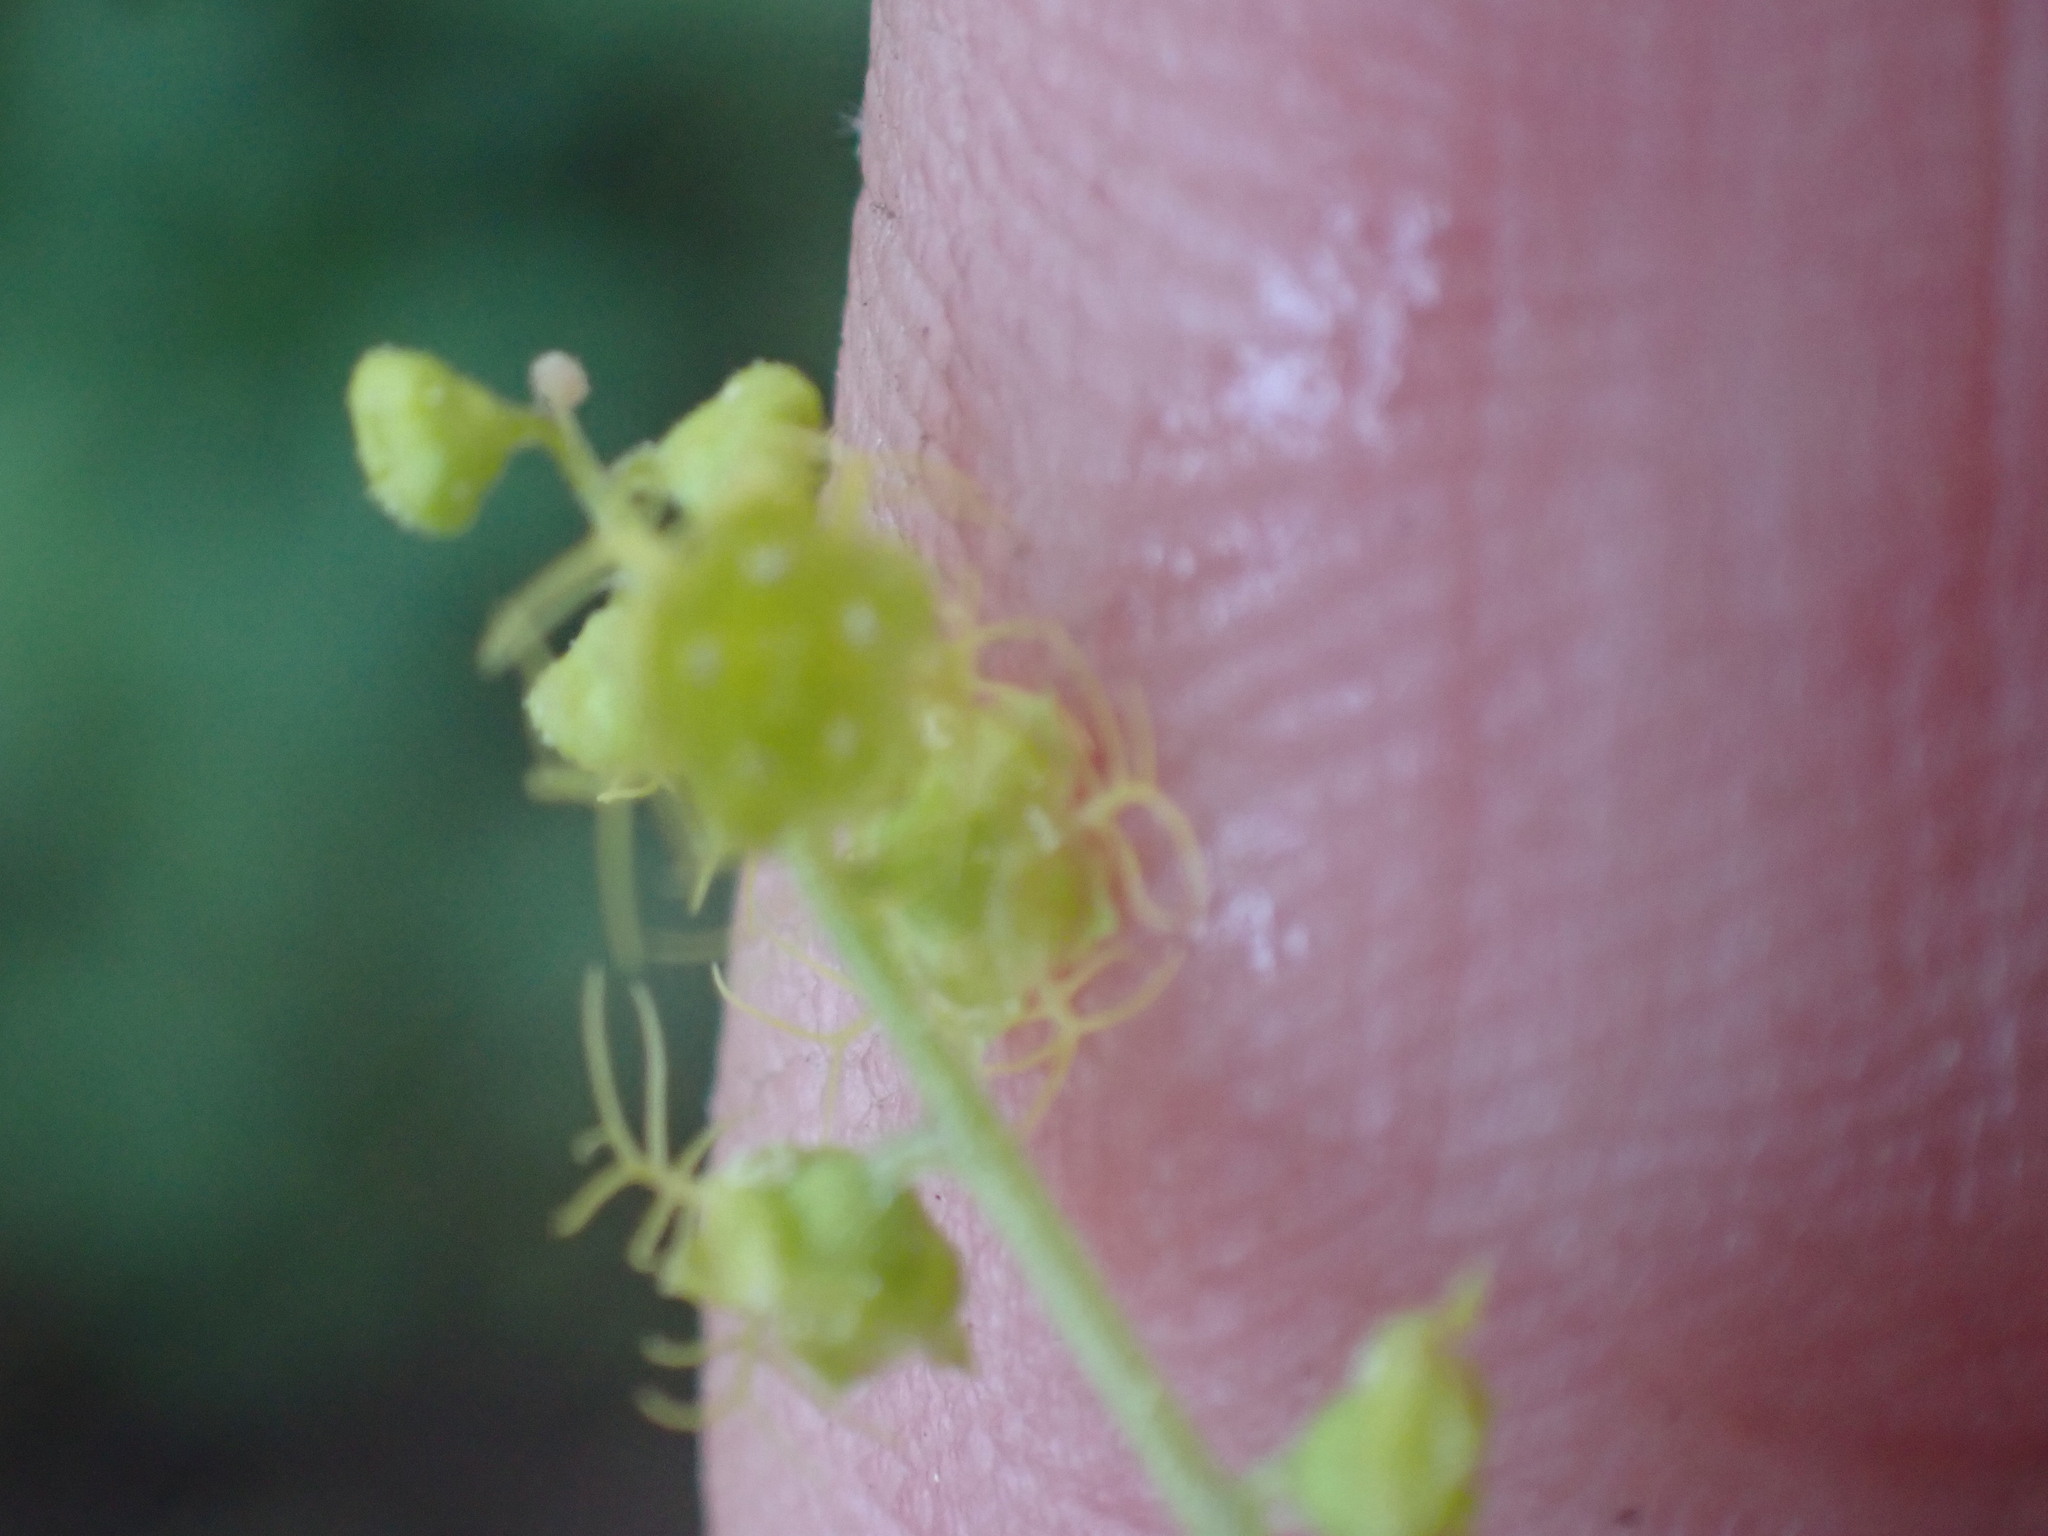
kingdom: Plantae
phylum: Tracheophyta
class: Magnoliopsida
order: Saxifragales
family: Saxifragaceae
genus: Brewerimitella
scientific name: Brewerimitella breweri
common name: Brewer's bishop's-cap
